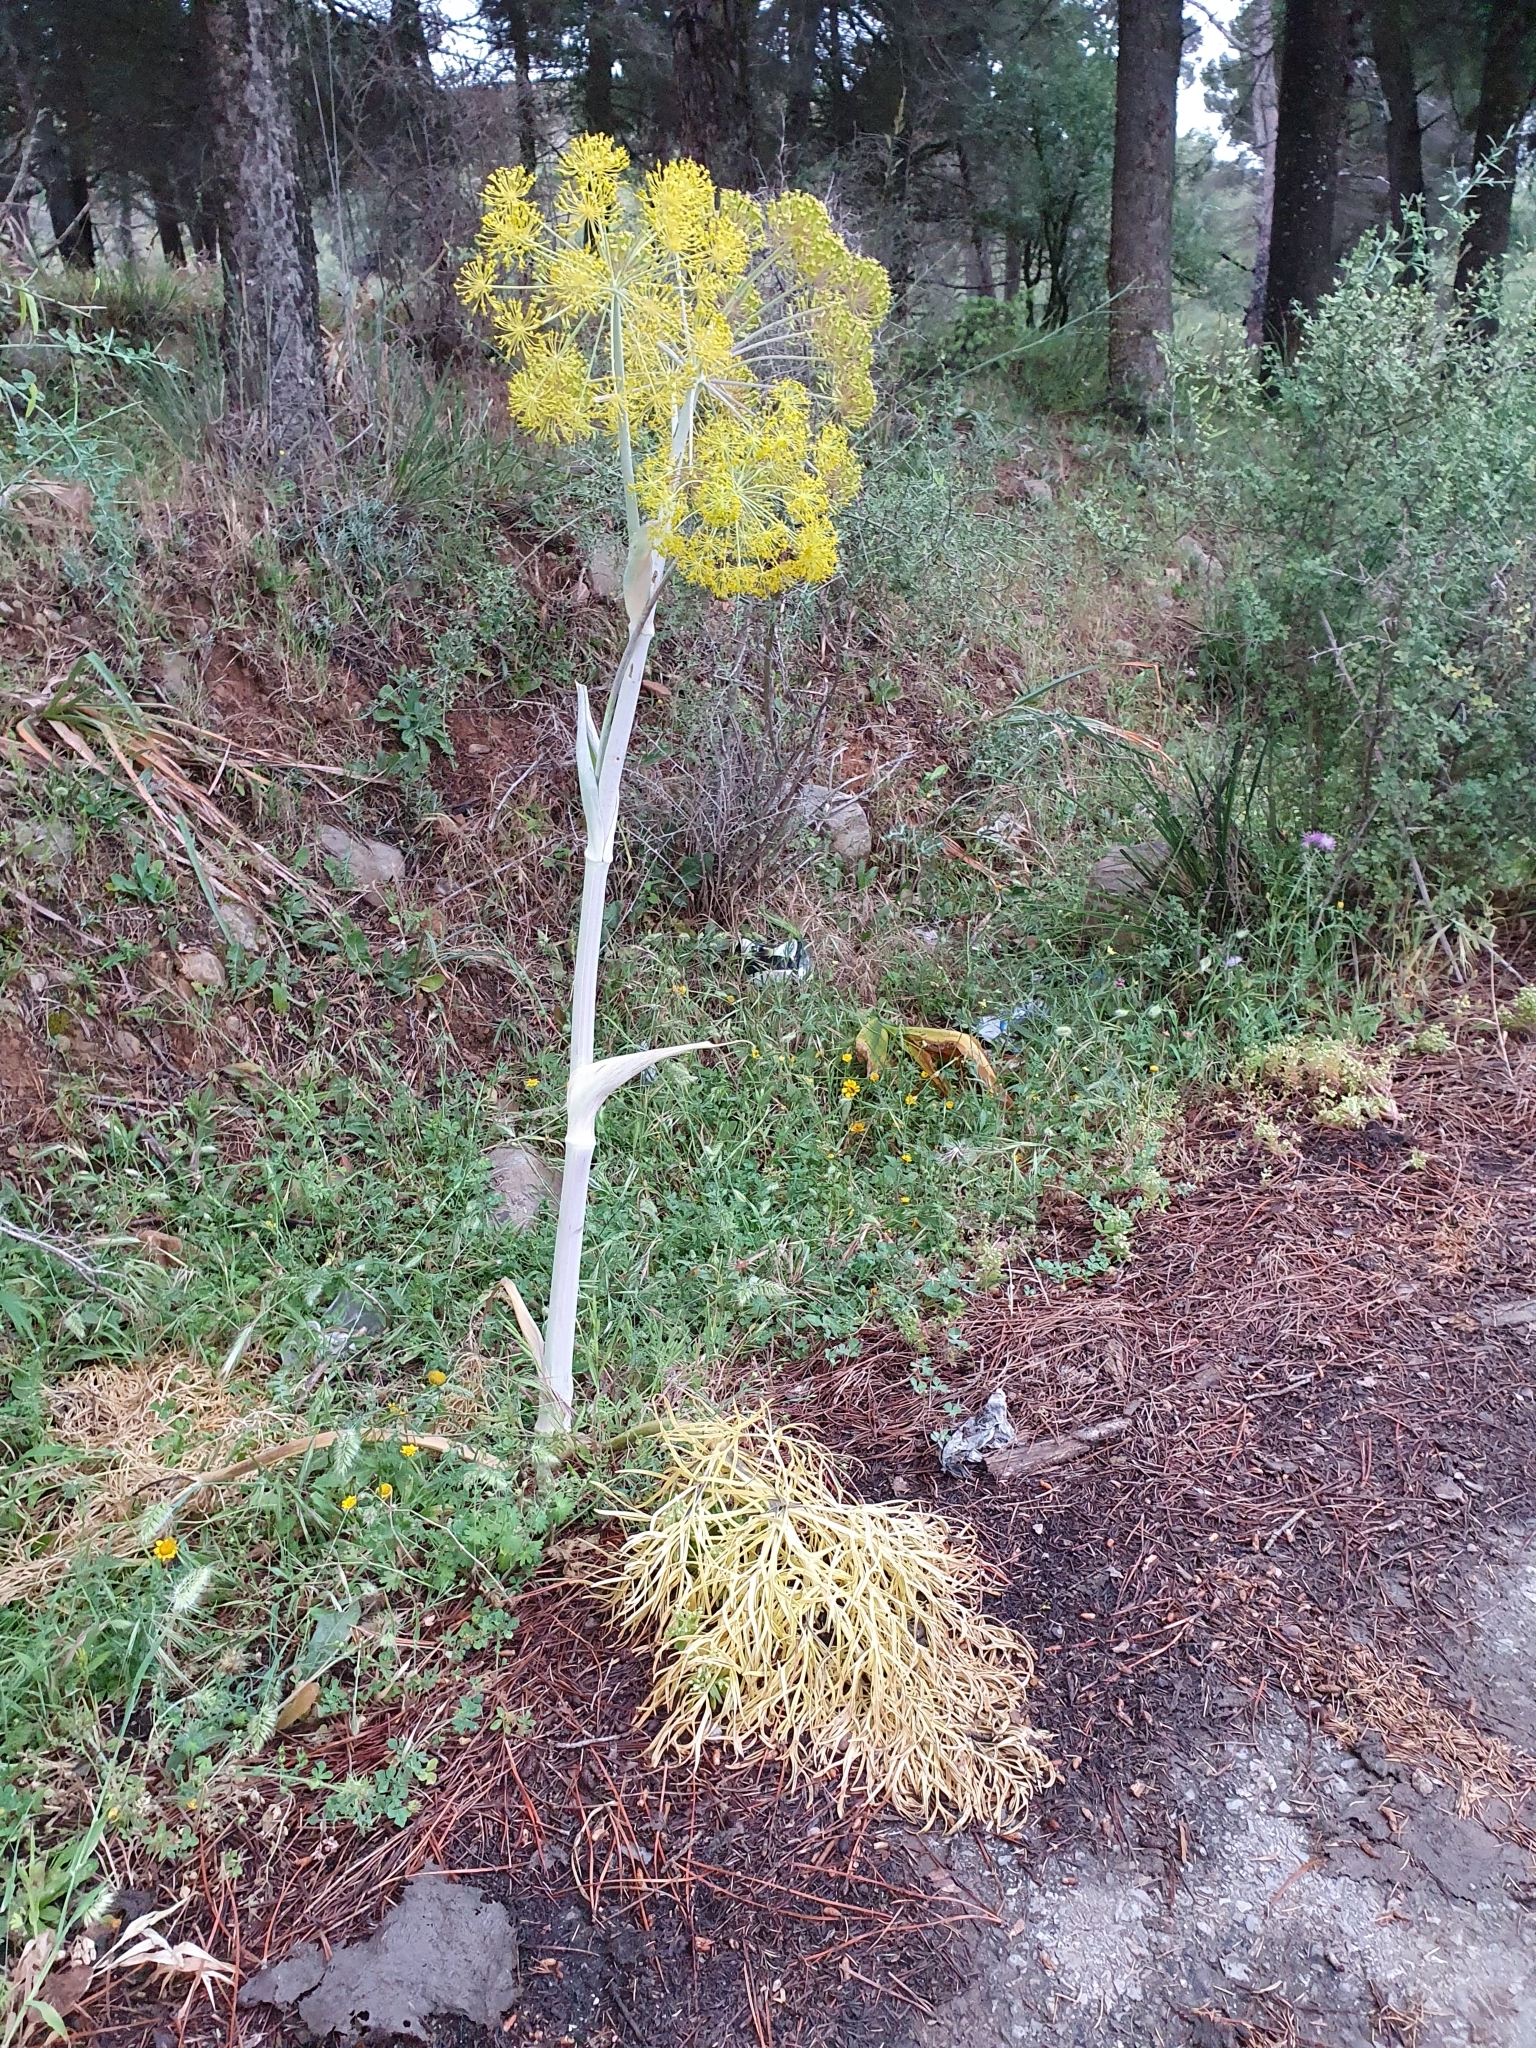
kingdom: Plantae
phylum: Tracheophyta
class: Magnoliopsida
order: Apiales
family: Apiaceae
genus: Thapsia
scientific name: Thapsia garganica
